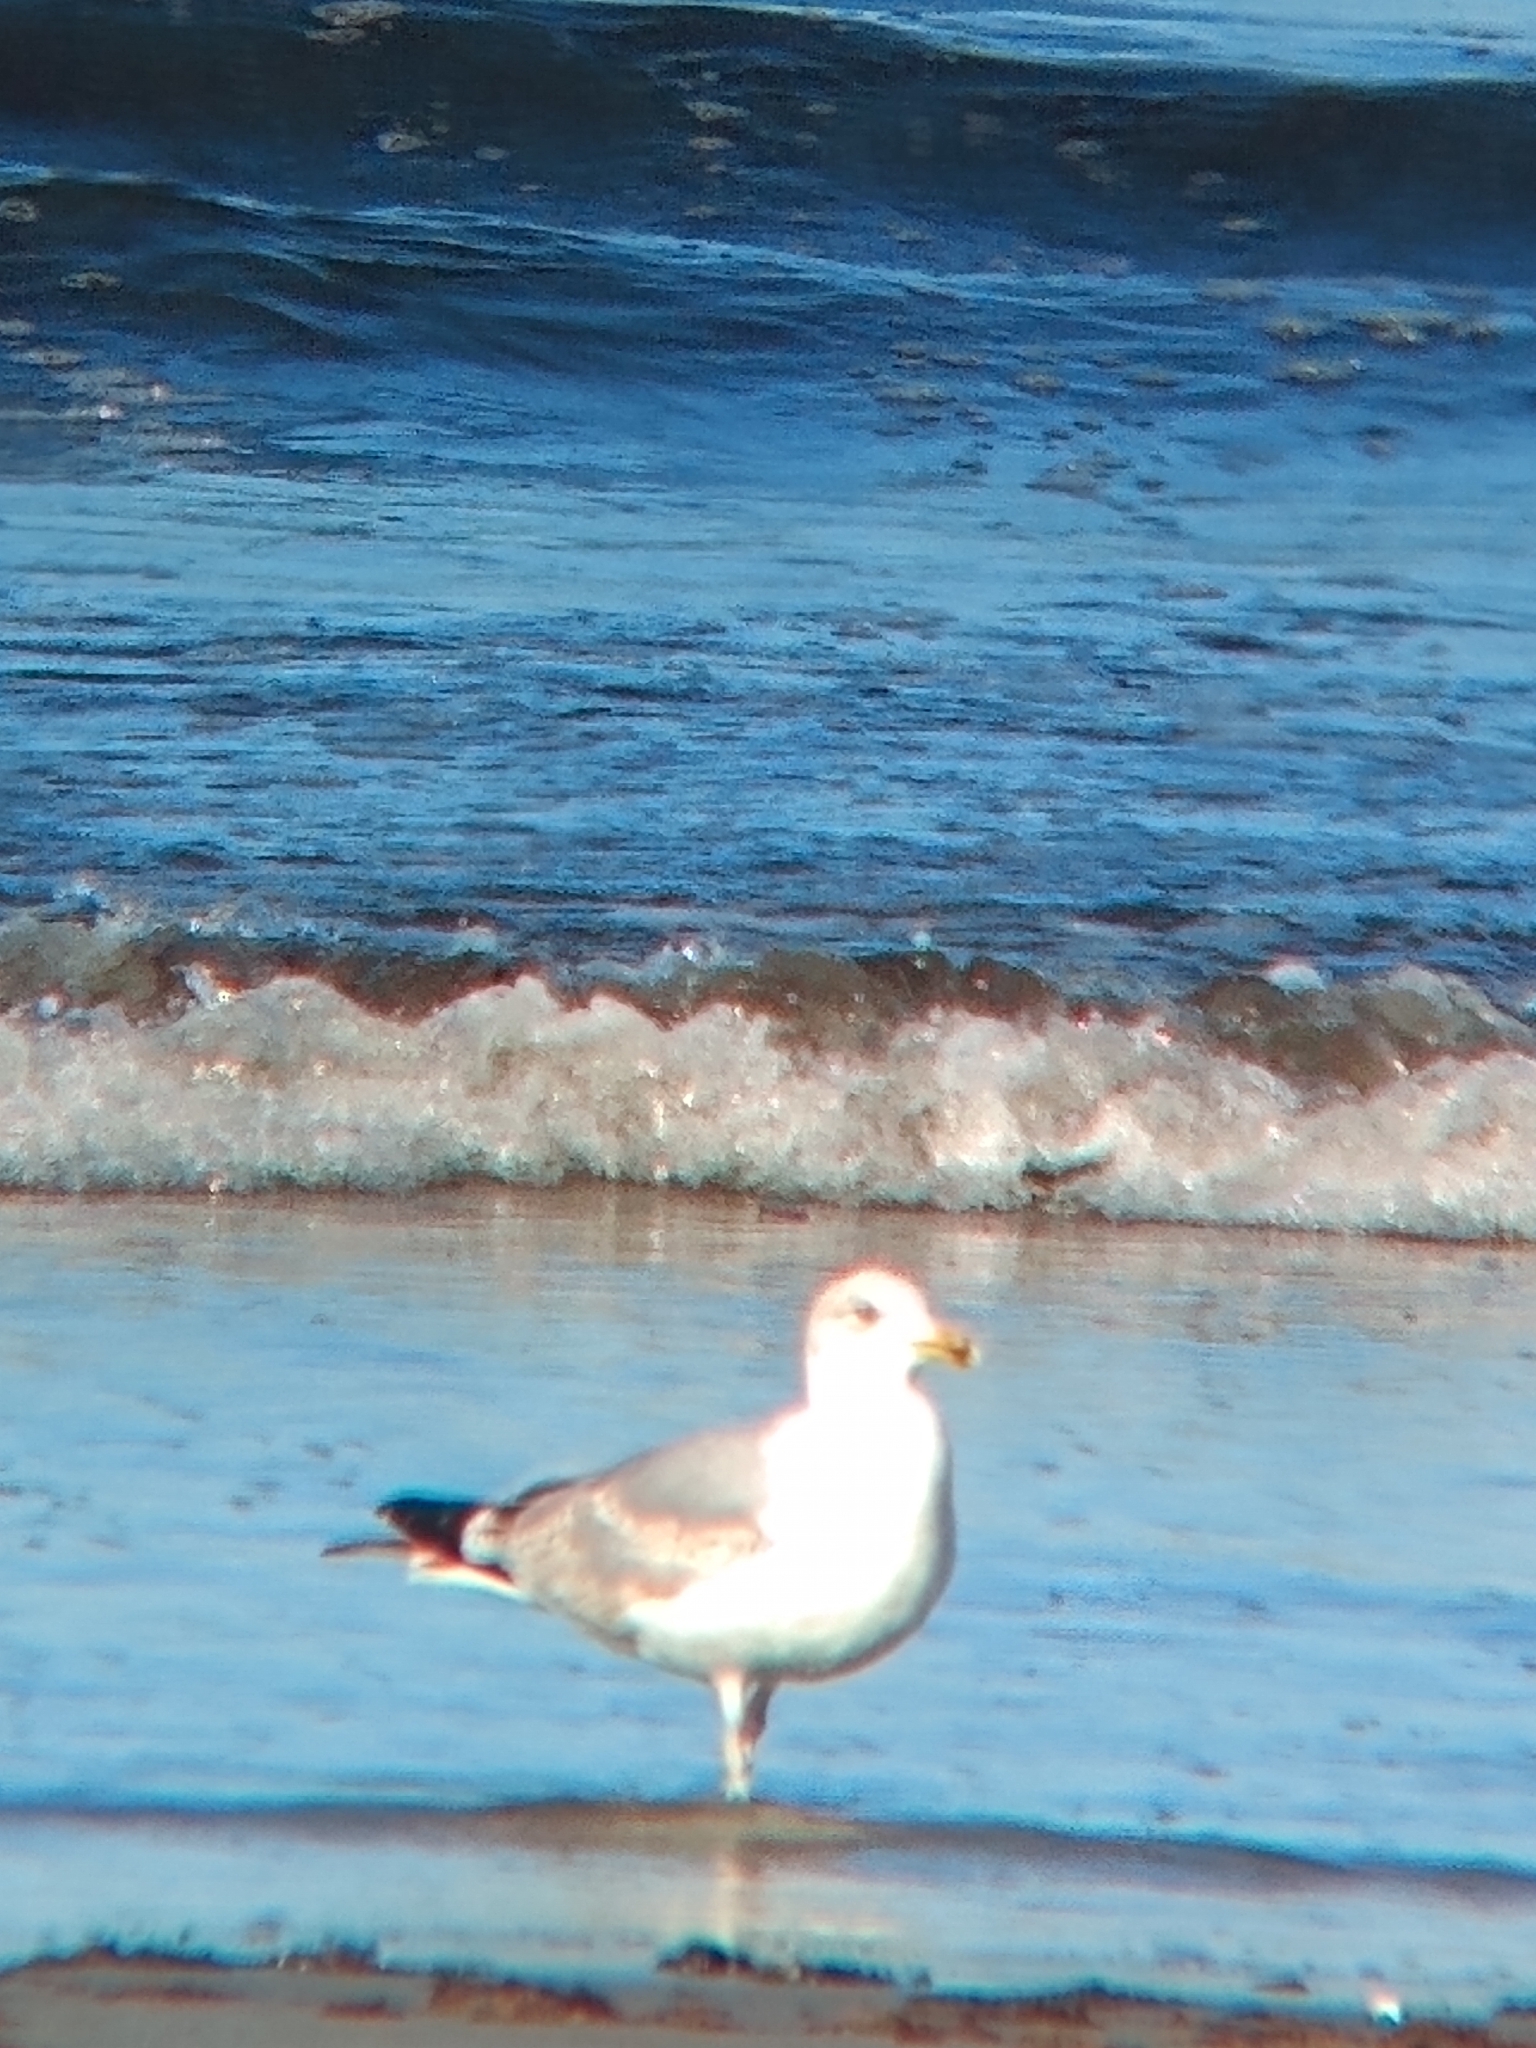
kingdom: Animalia
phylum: Chordata
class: Aves
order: Charadriiformes
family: Laridae
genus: Larus
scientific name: Larus argentatus
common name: Herring gull
